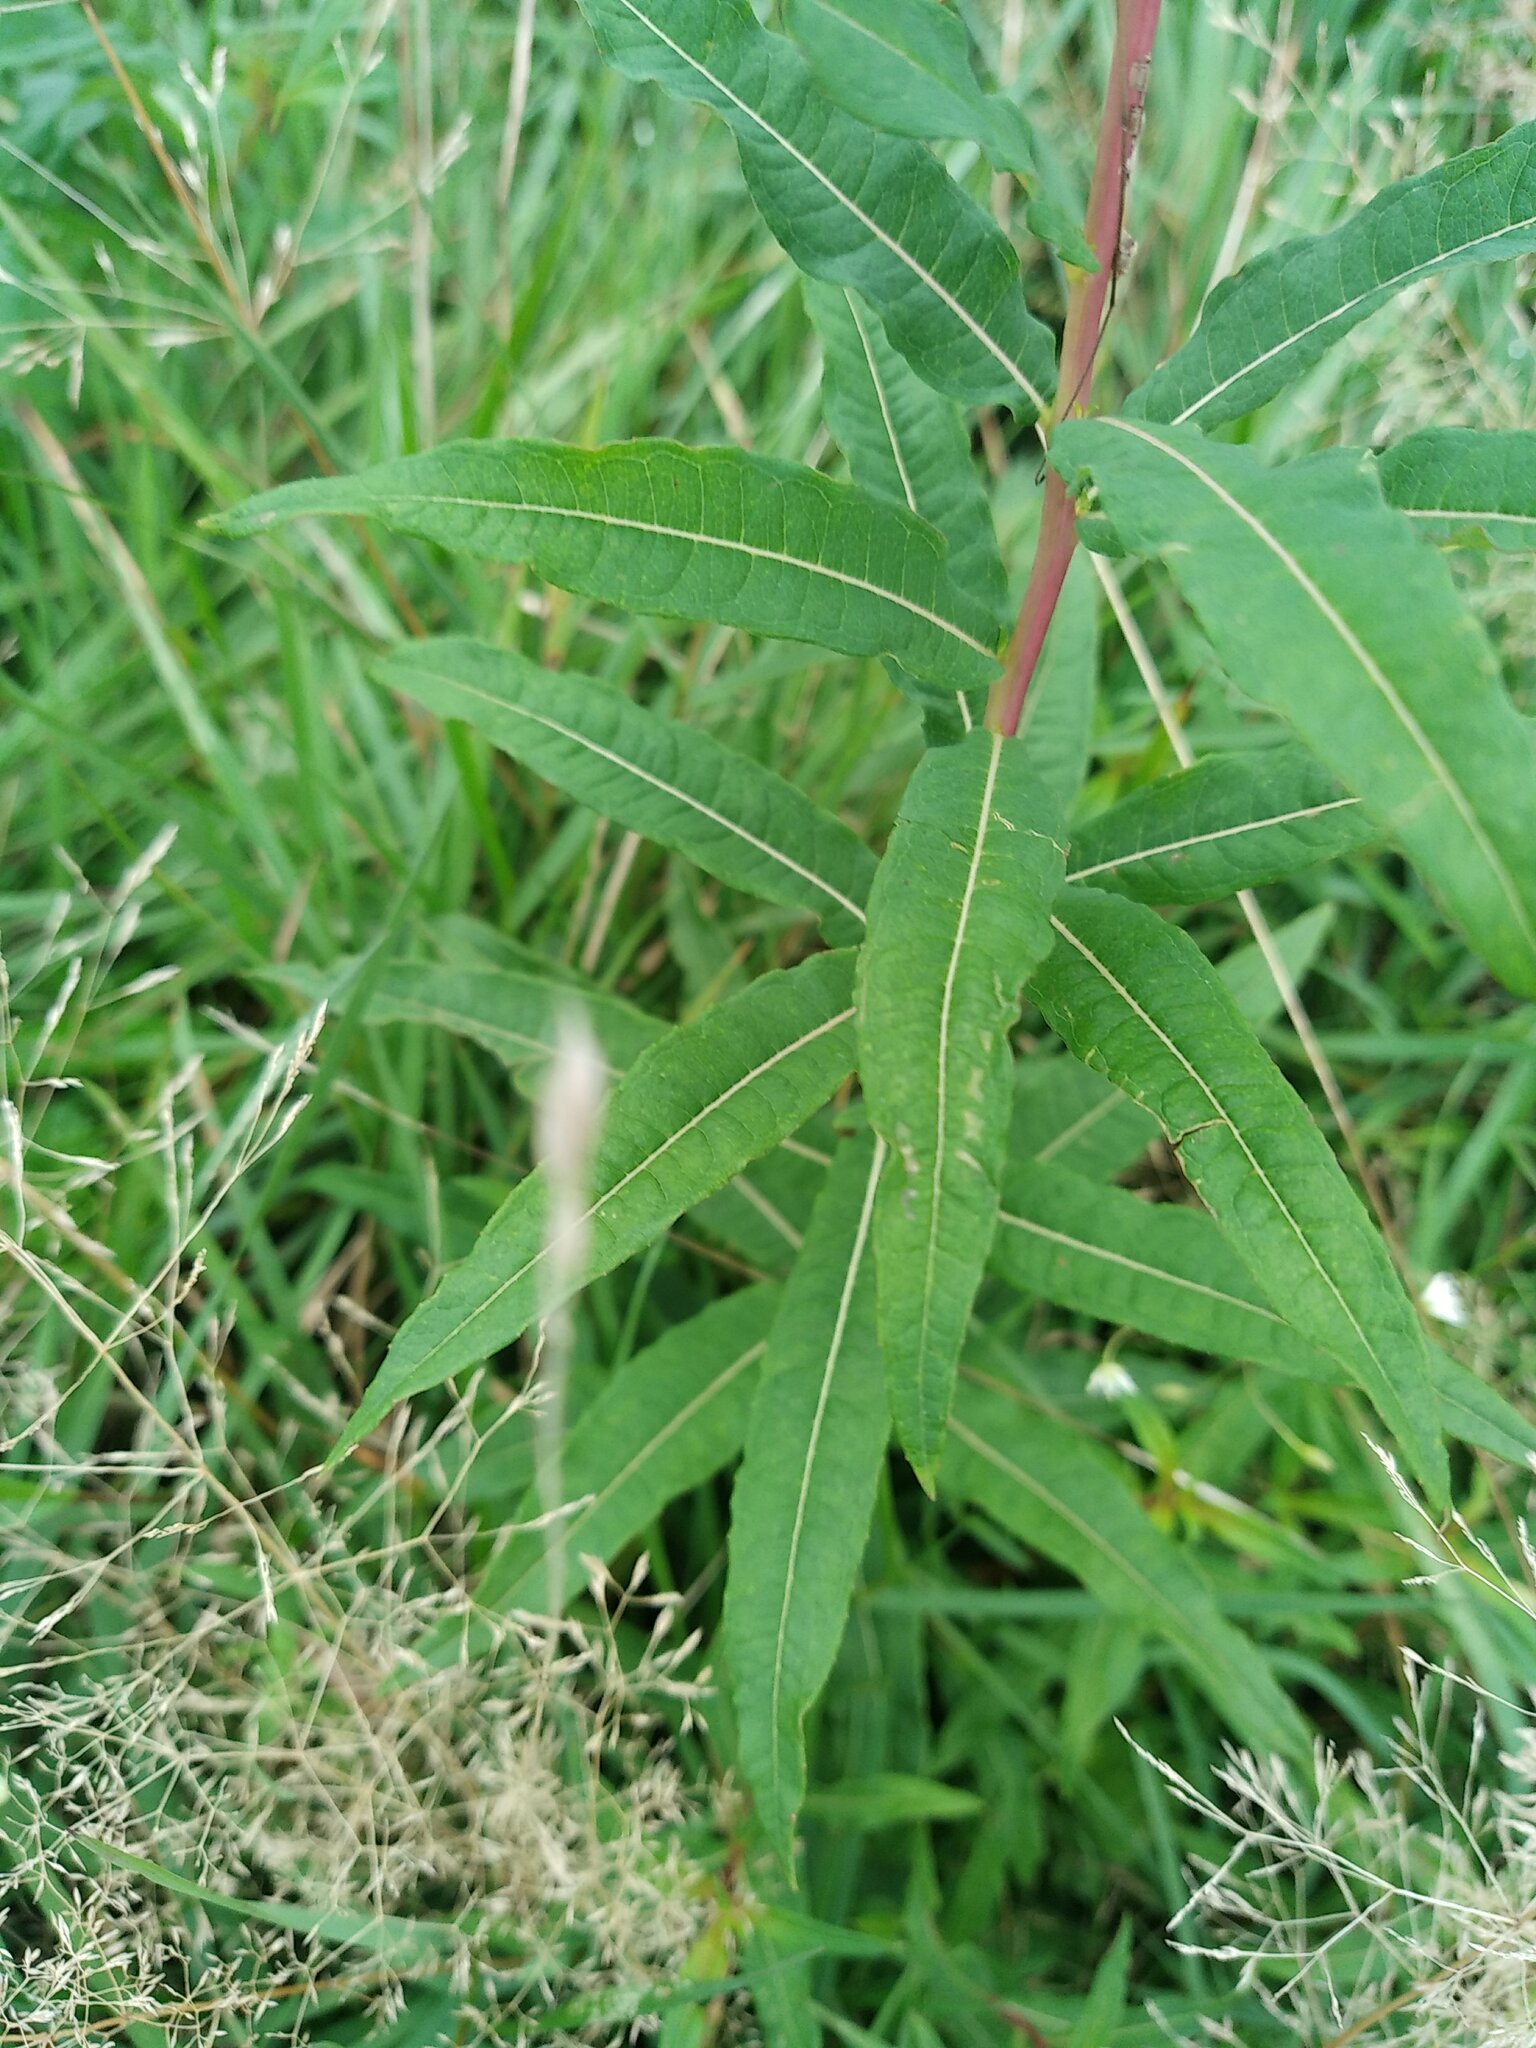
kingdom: Plantae
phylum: Tracheophyta
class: Magnoliopsida
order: Myrtales
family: Onagraceae
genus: Chamaenerion
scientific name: Chamaenerion angustifolium
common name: Fireweed
